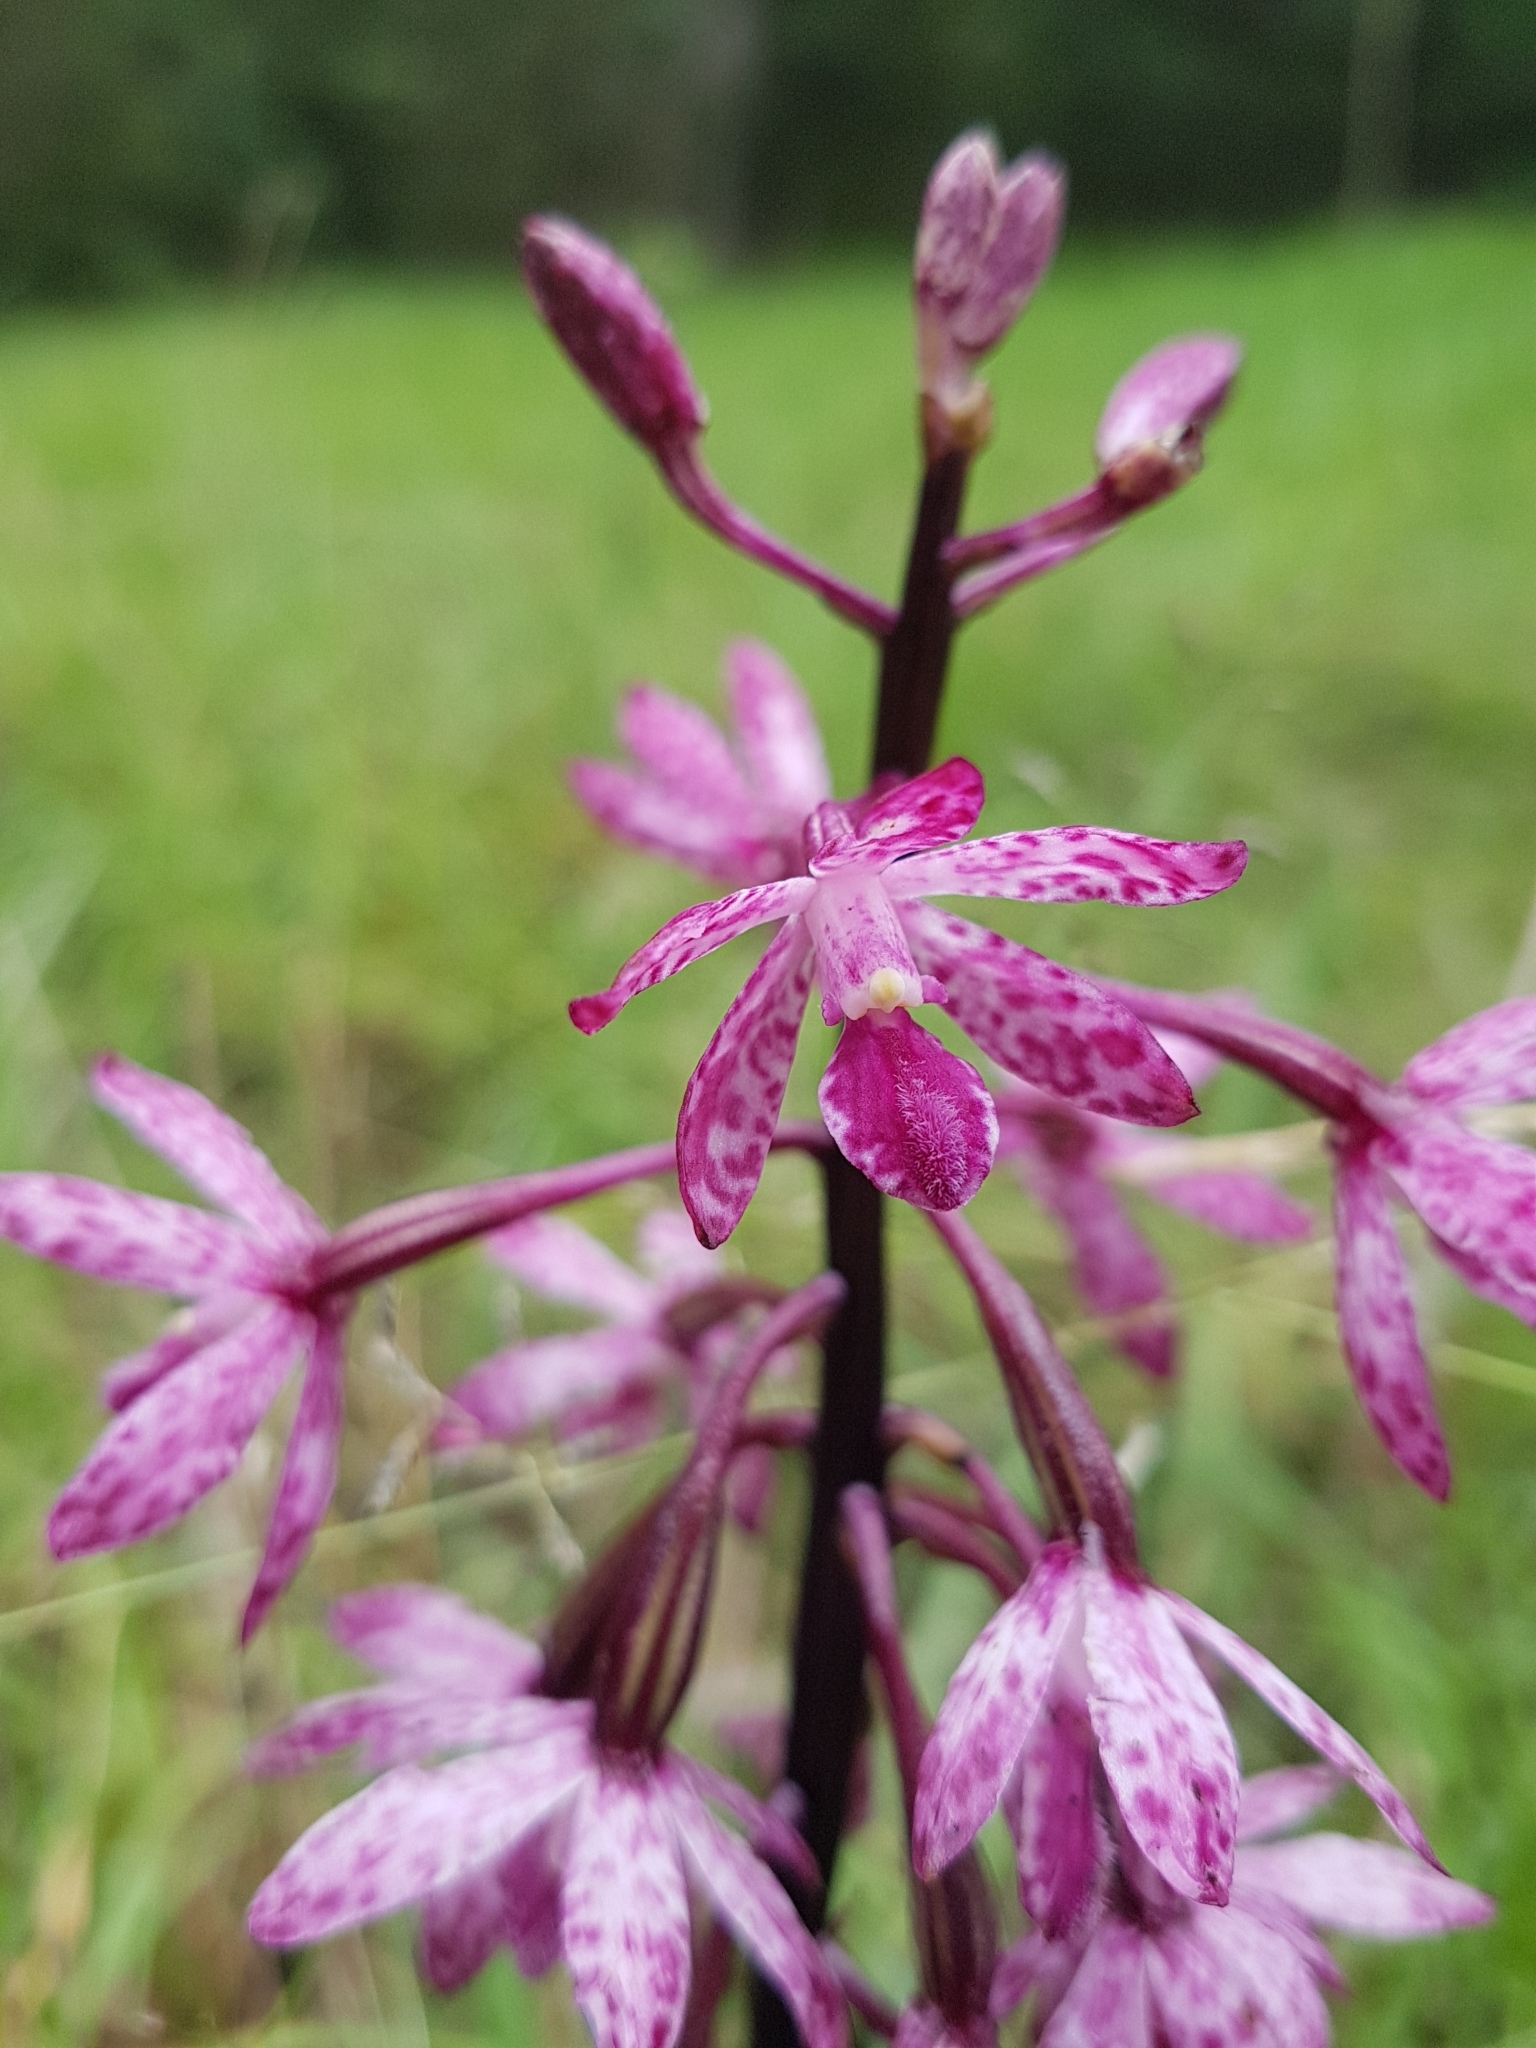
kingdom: Plantae
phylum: Tracheophyta
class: Liliopsida
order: Asparagales
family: Orchidaceae
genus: Dipodium
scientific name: Dipodium squamatum
